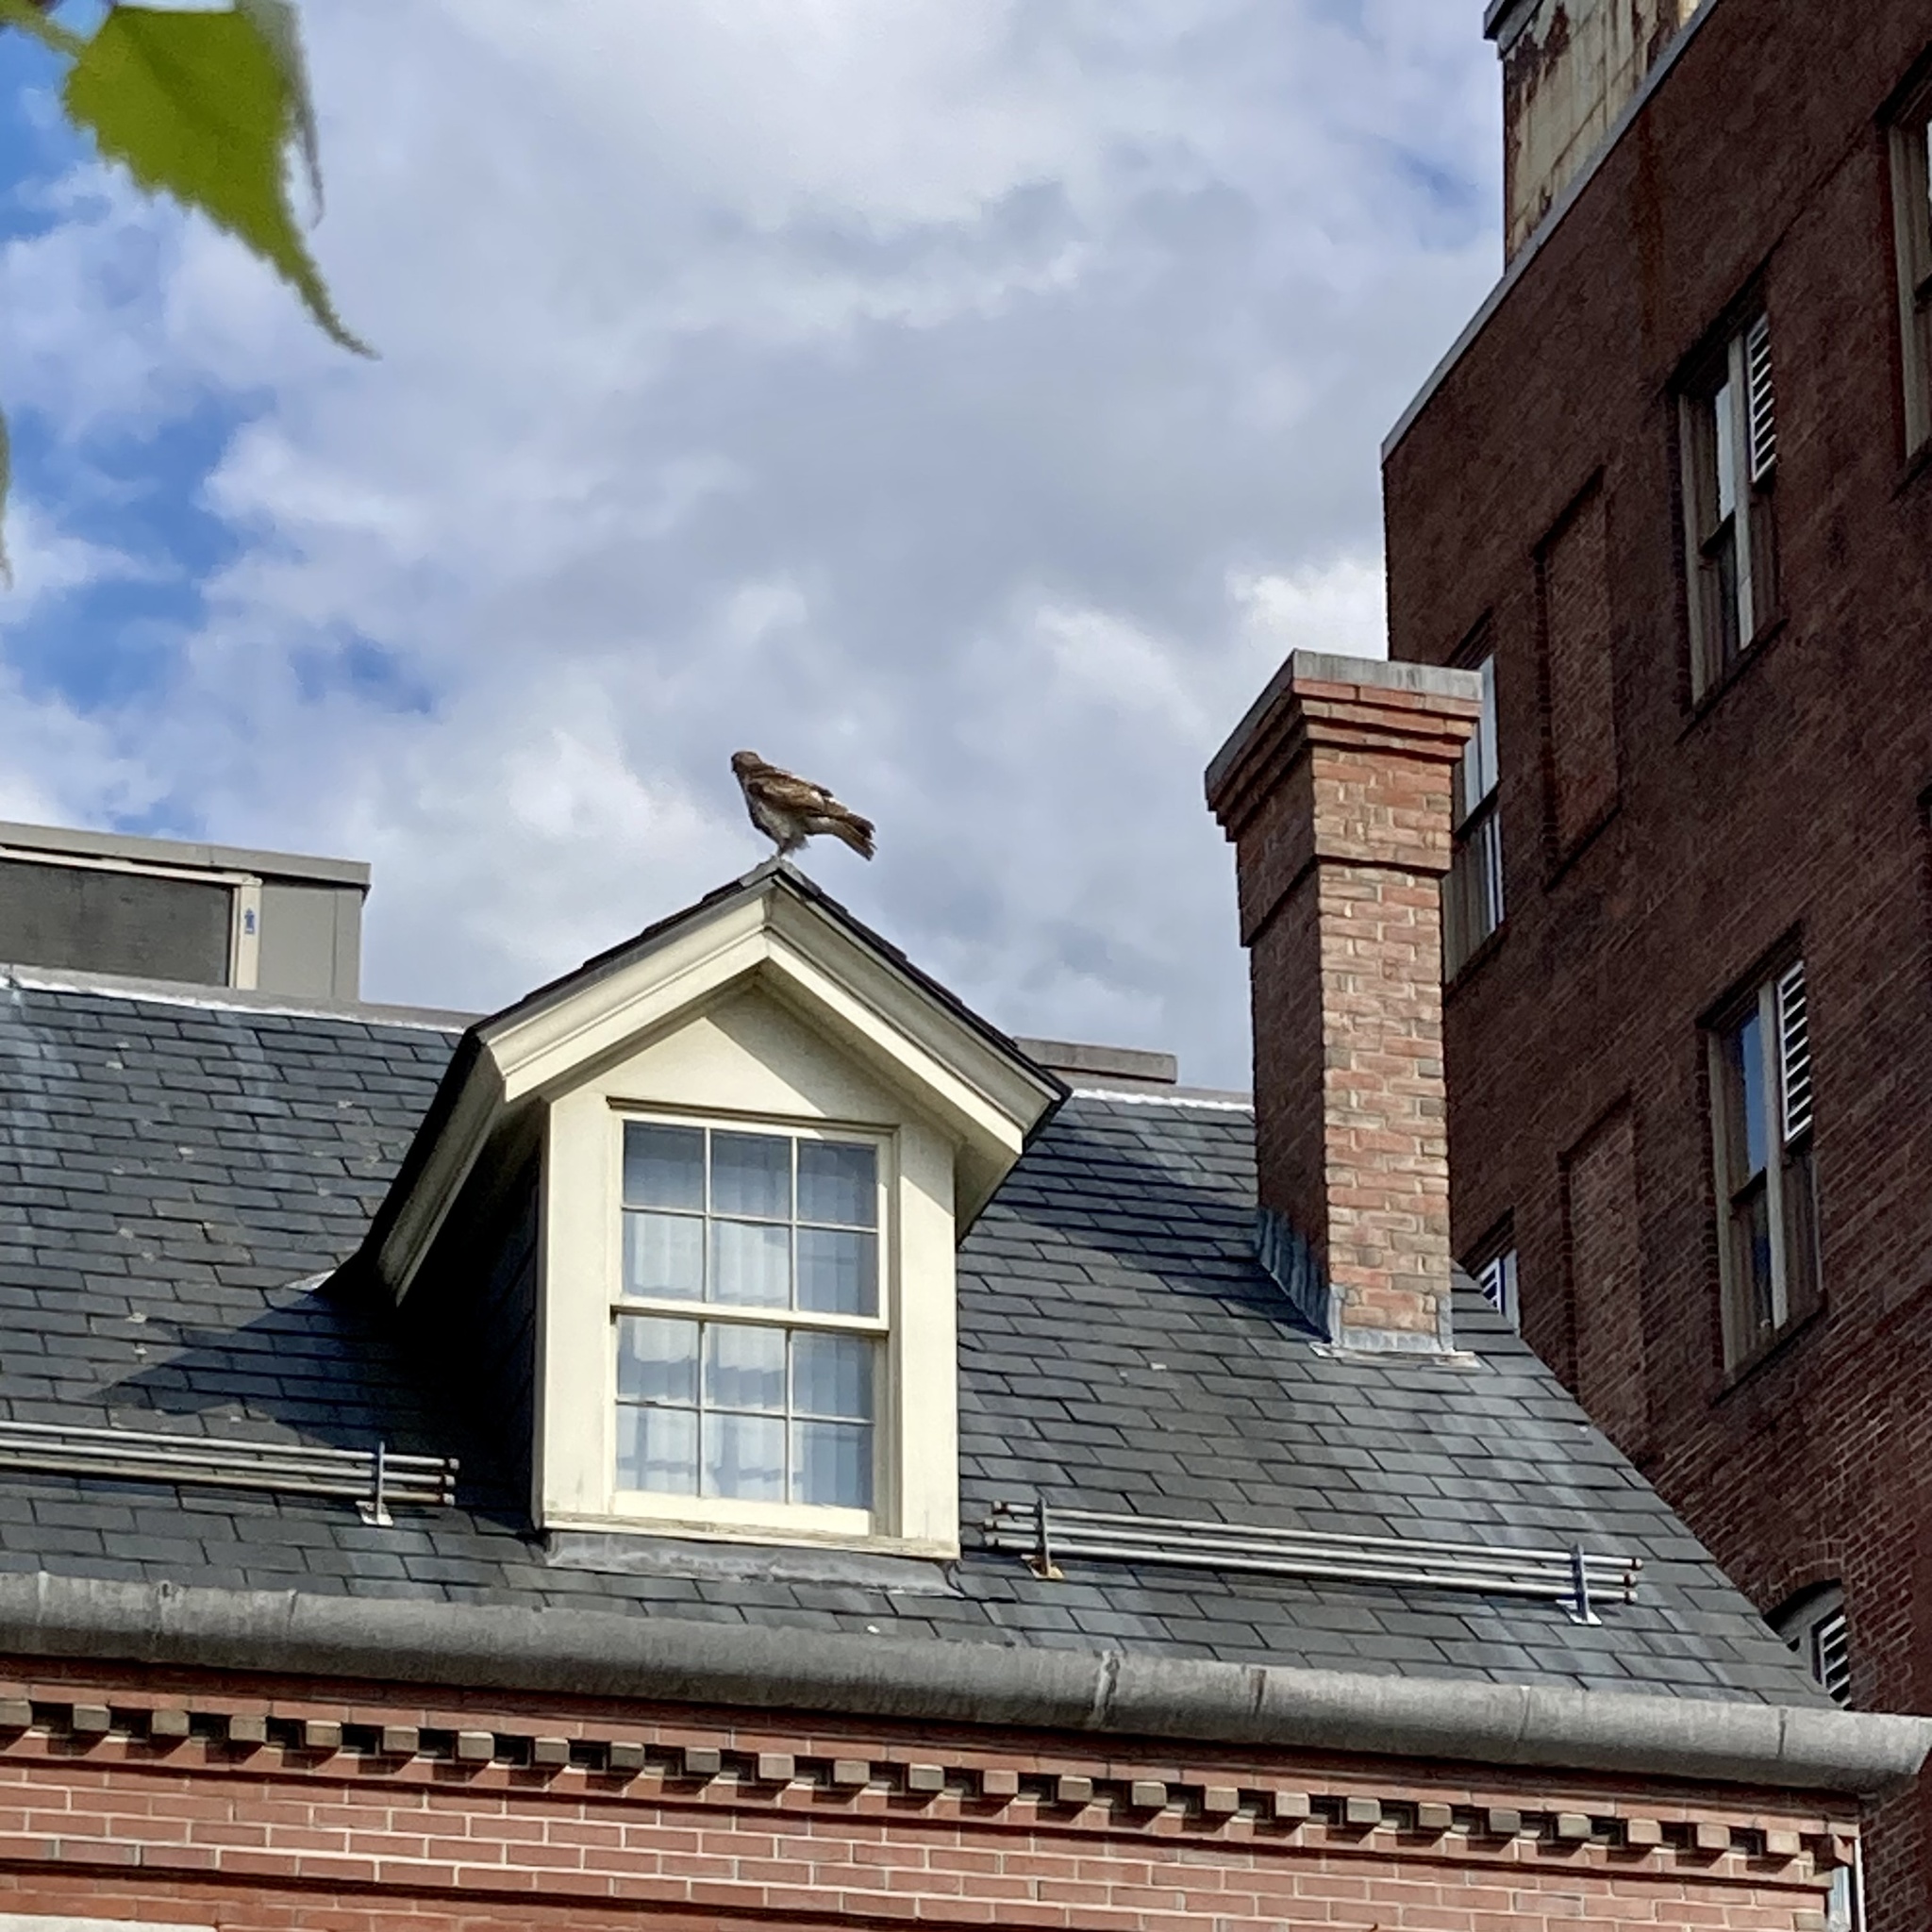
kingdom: Animalia
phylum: Chordata
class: Aves
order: Accipitriformes
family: Accipitridae
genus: Buteo
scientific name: Buteo jamaicensis
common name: Red-tailed hawk
